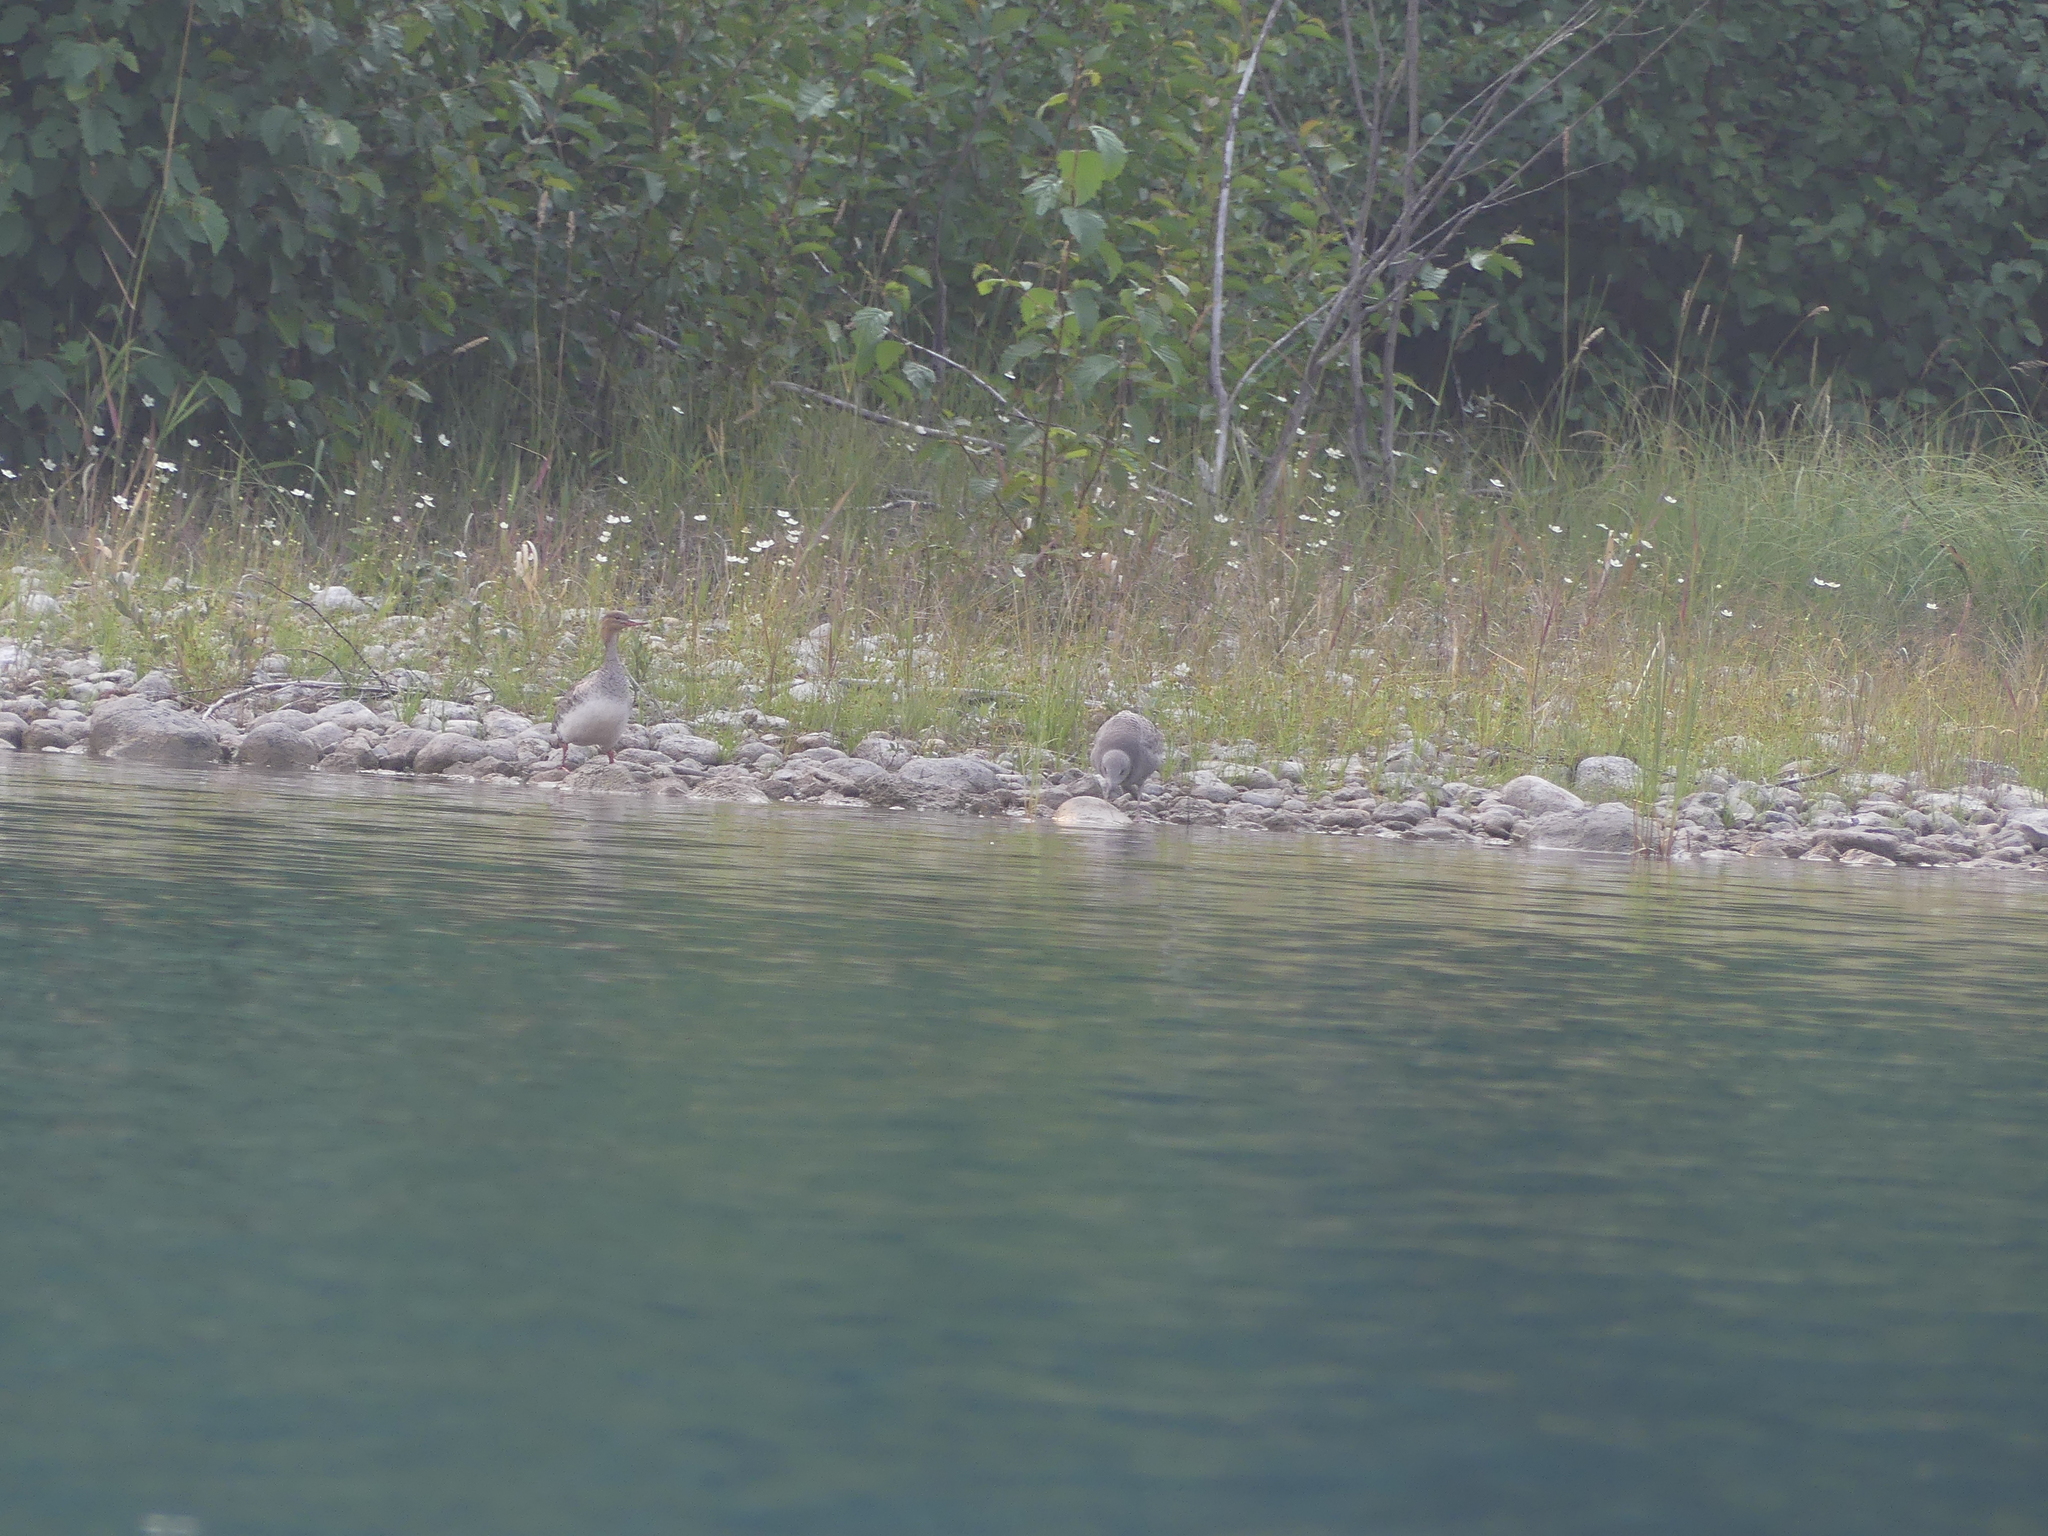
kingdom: Animalia
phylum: Chordata
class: Aves
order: Anseriformes
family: Anatidae
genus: Mergus
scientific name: Mergus serrator
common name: Red-breasted merganser
